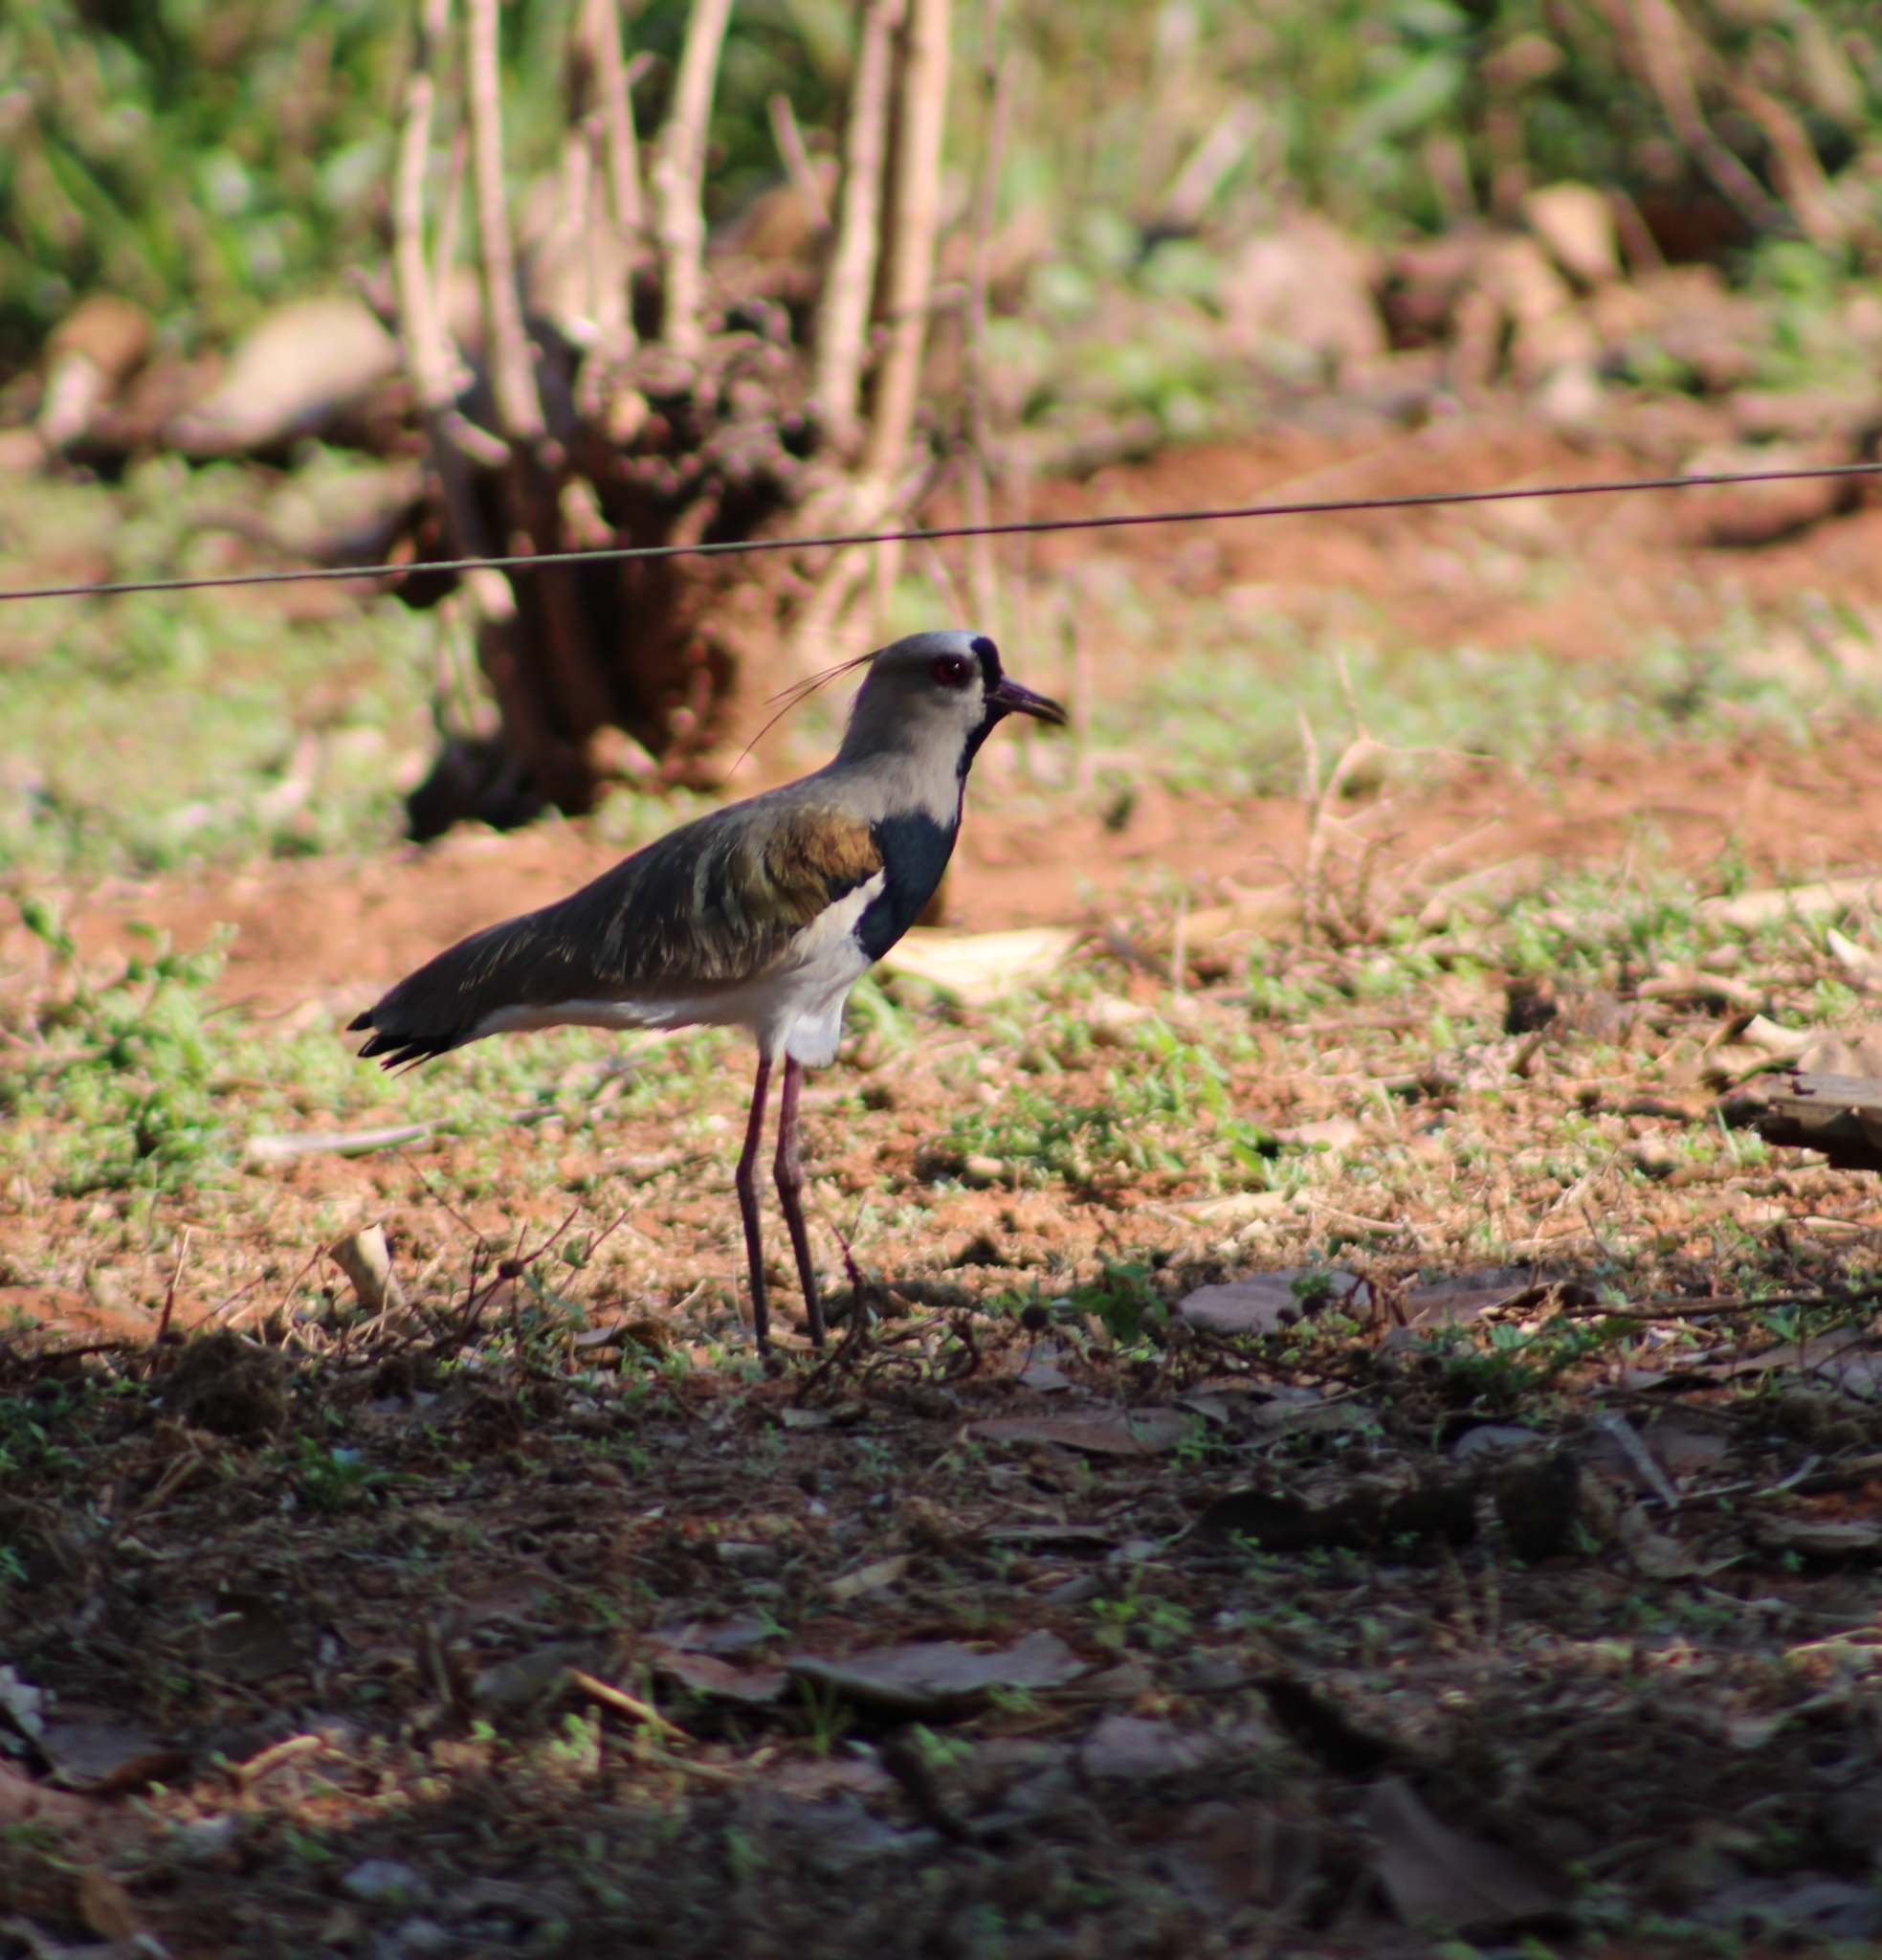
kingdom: Animalia
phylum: Chordata
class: Aves
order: Charadriiformes
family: Charadriidae
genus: Vanellus
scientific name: Vanellus chilensis
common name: Southern lapwing
